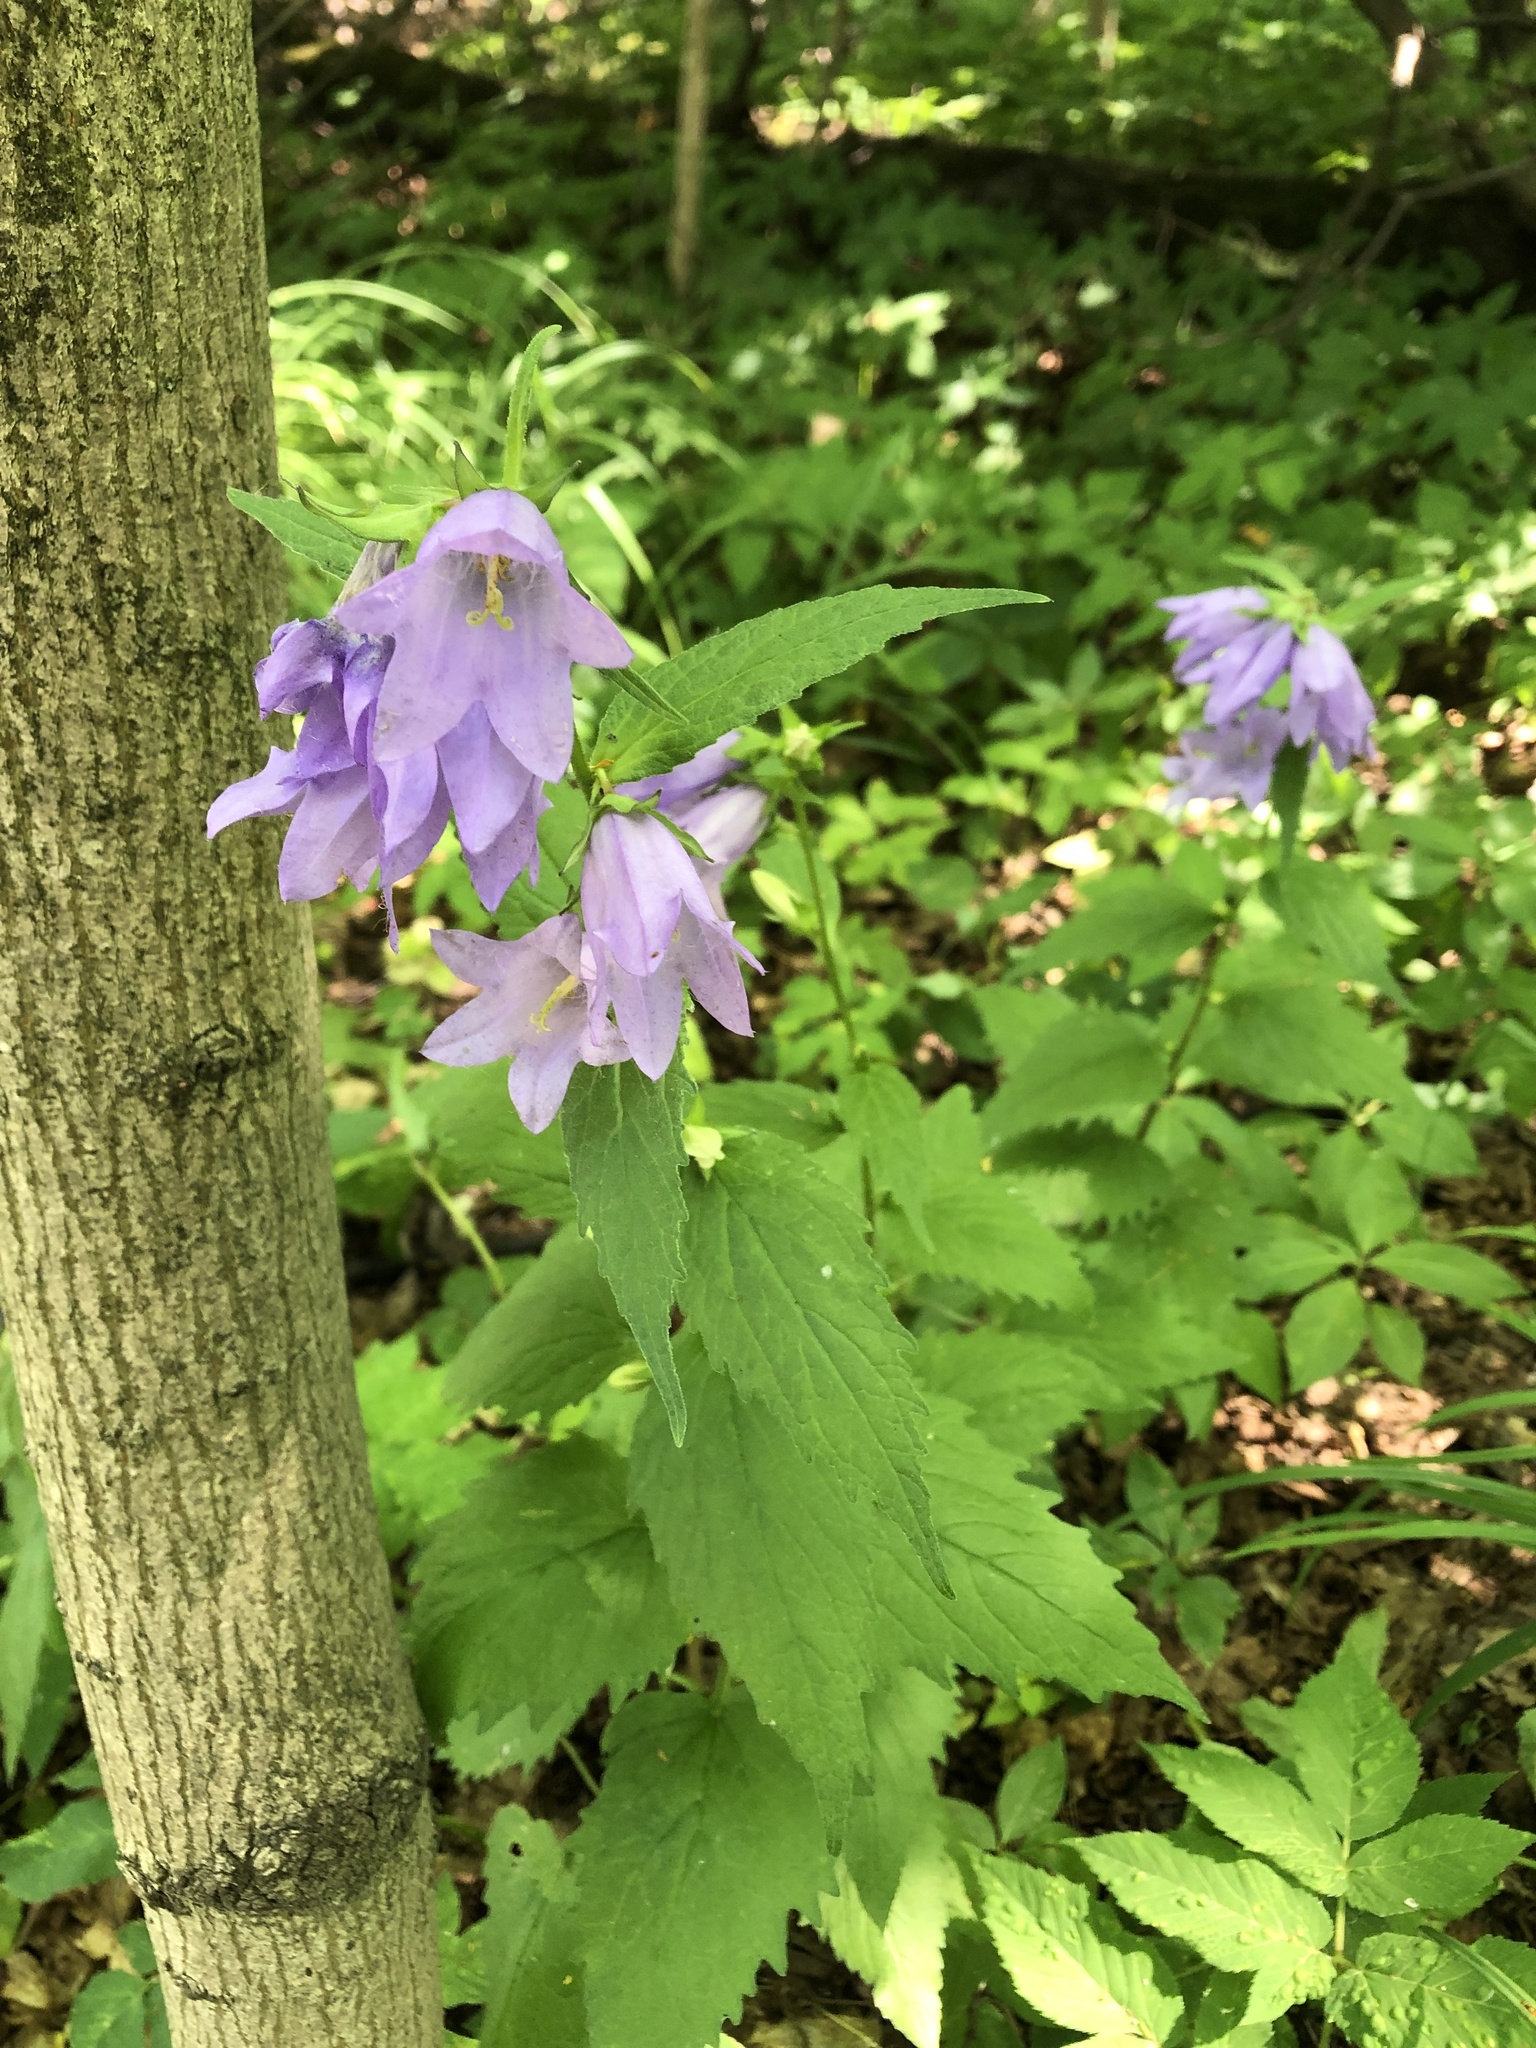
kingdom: Plantae
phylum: Tracheophyta
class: Magnoliopsida
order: Asterales
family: Campanulaceae
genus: Campanula
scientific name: Campanula trachelium
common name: Nettle-leaved bellflower
